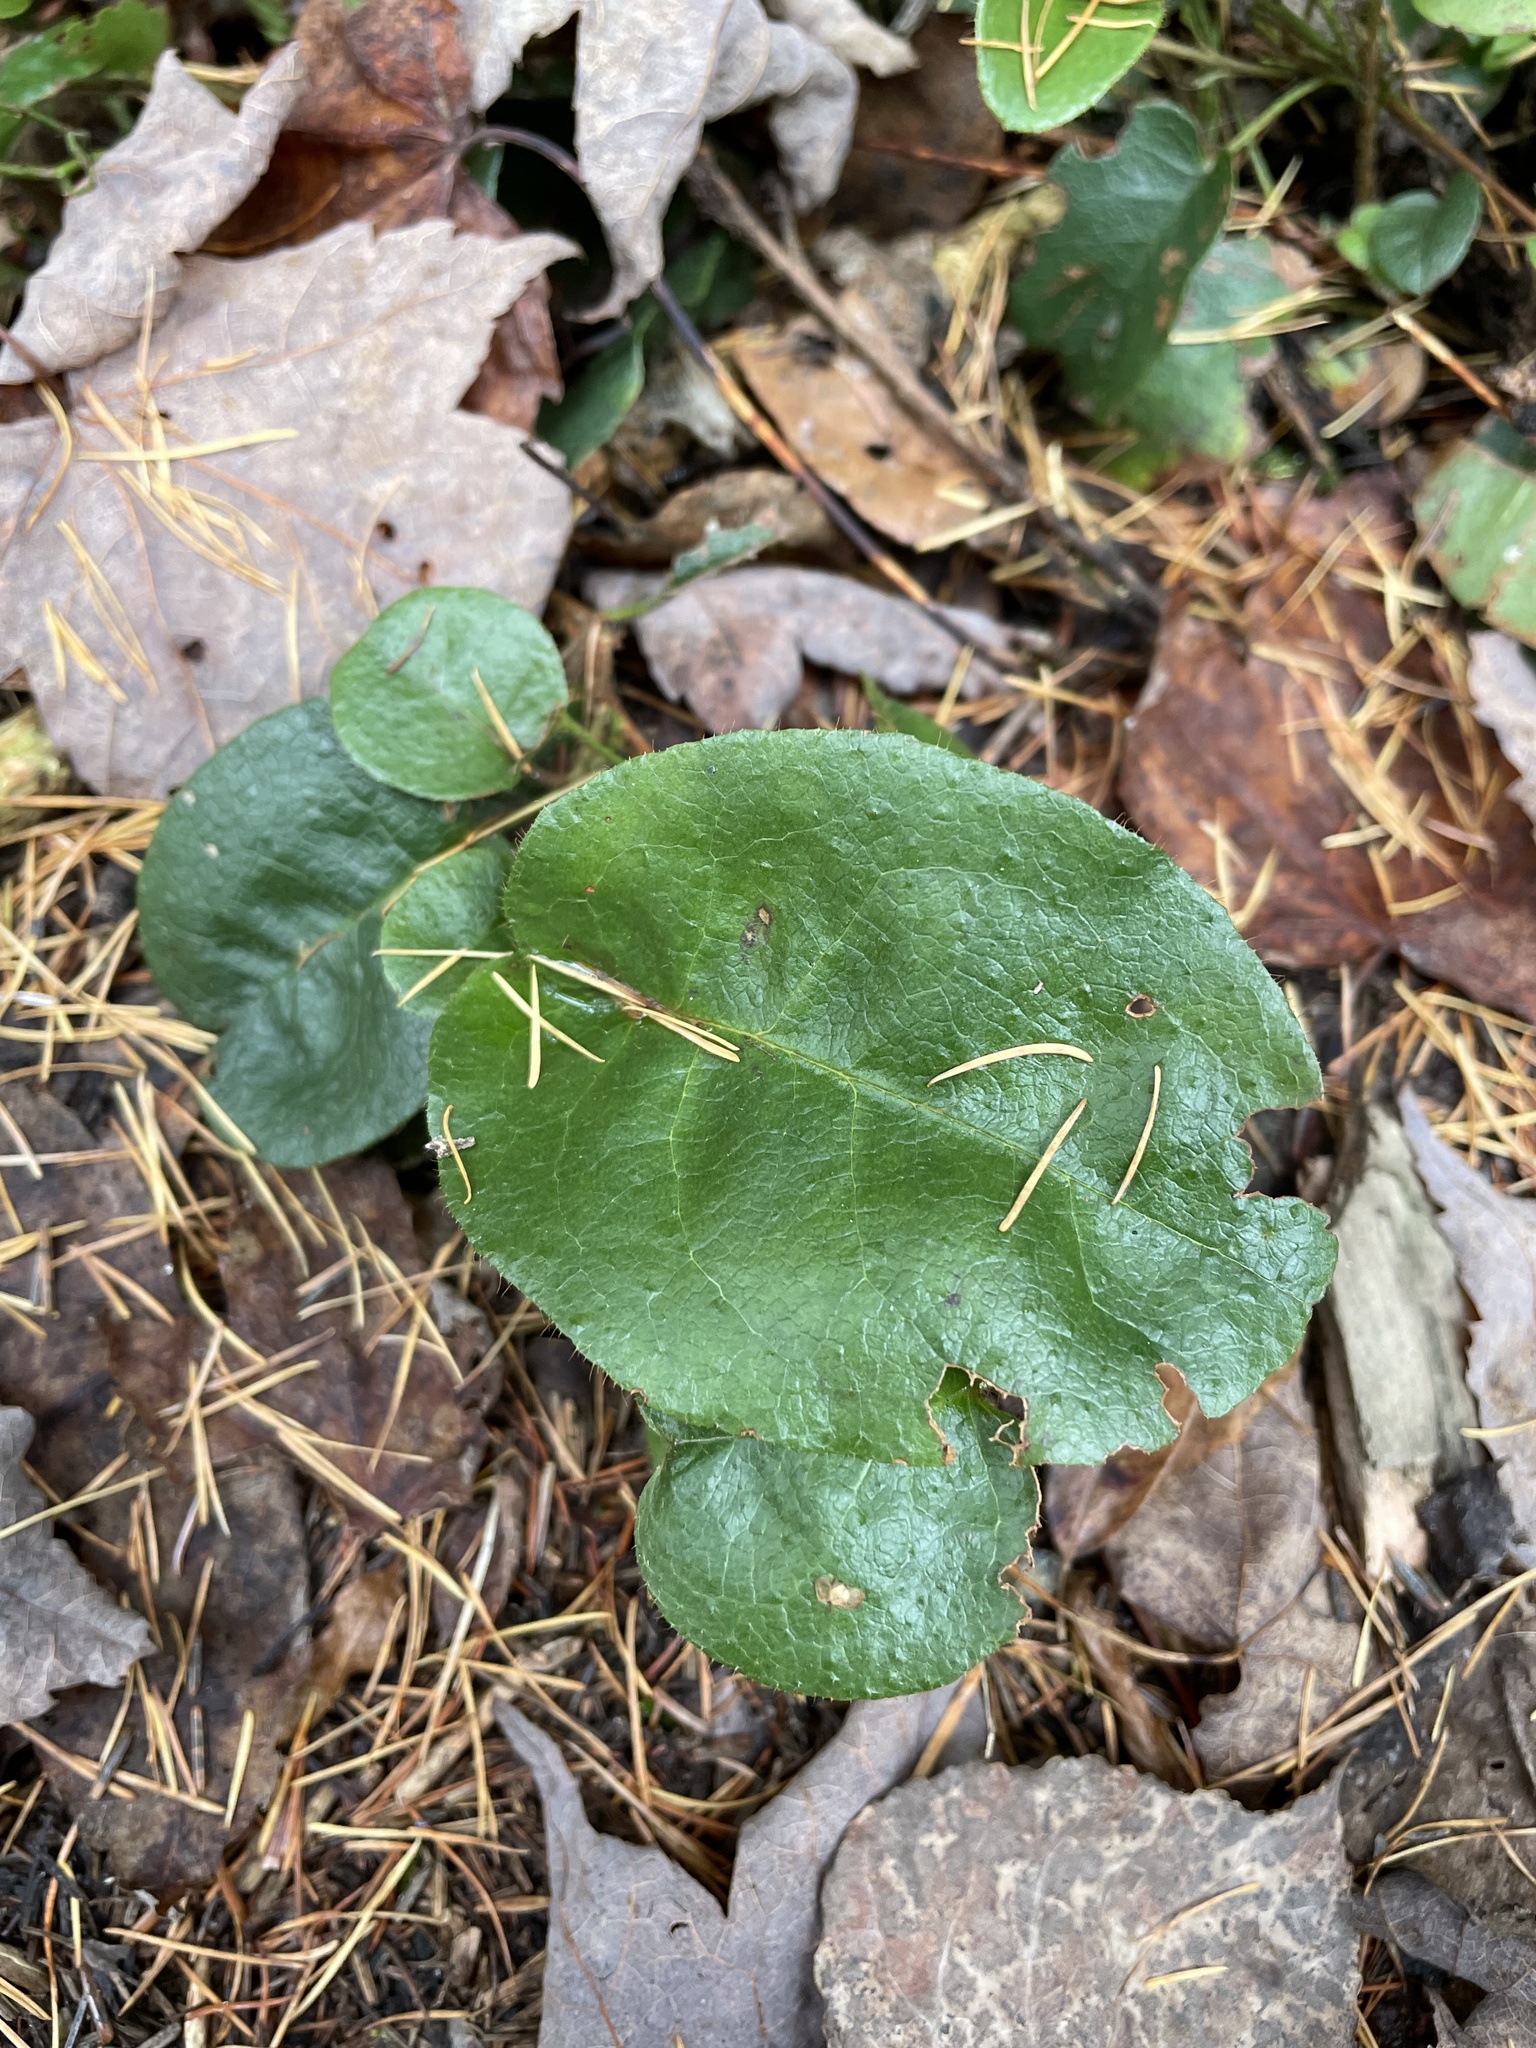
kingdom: Plantae
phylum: Tracheophyta
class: Magnoliopsida
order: Ericales
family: Ericaceae
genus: Epigaea
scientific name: Epigaea repens
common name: Gravelroot
